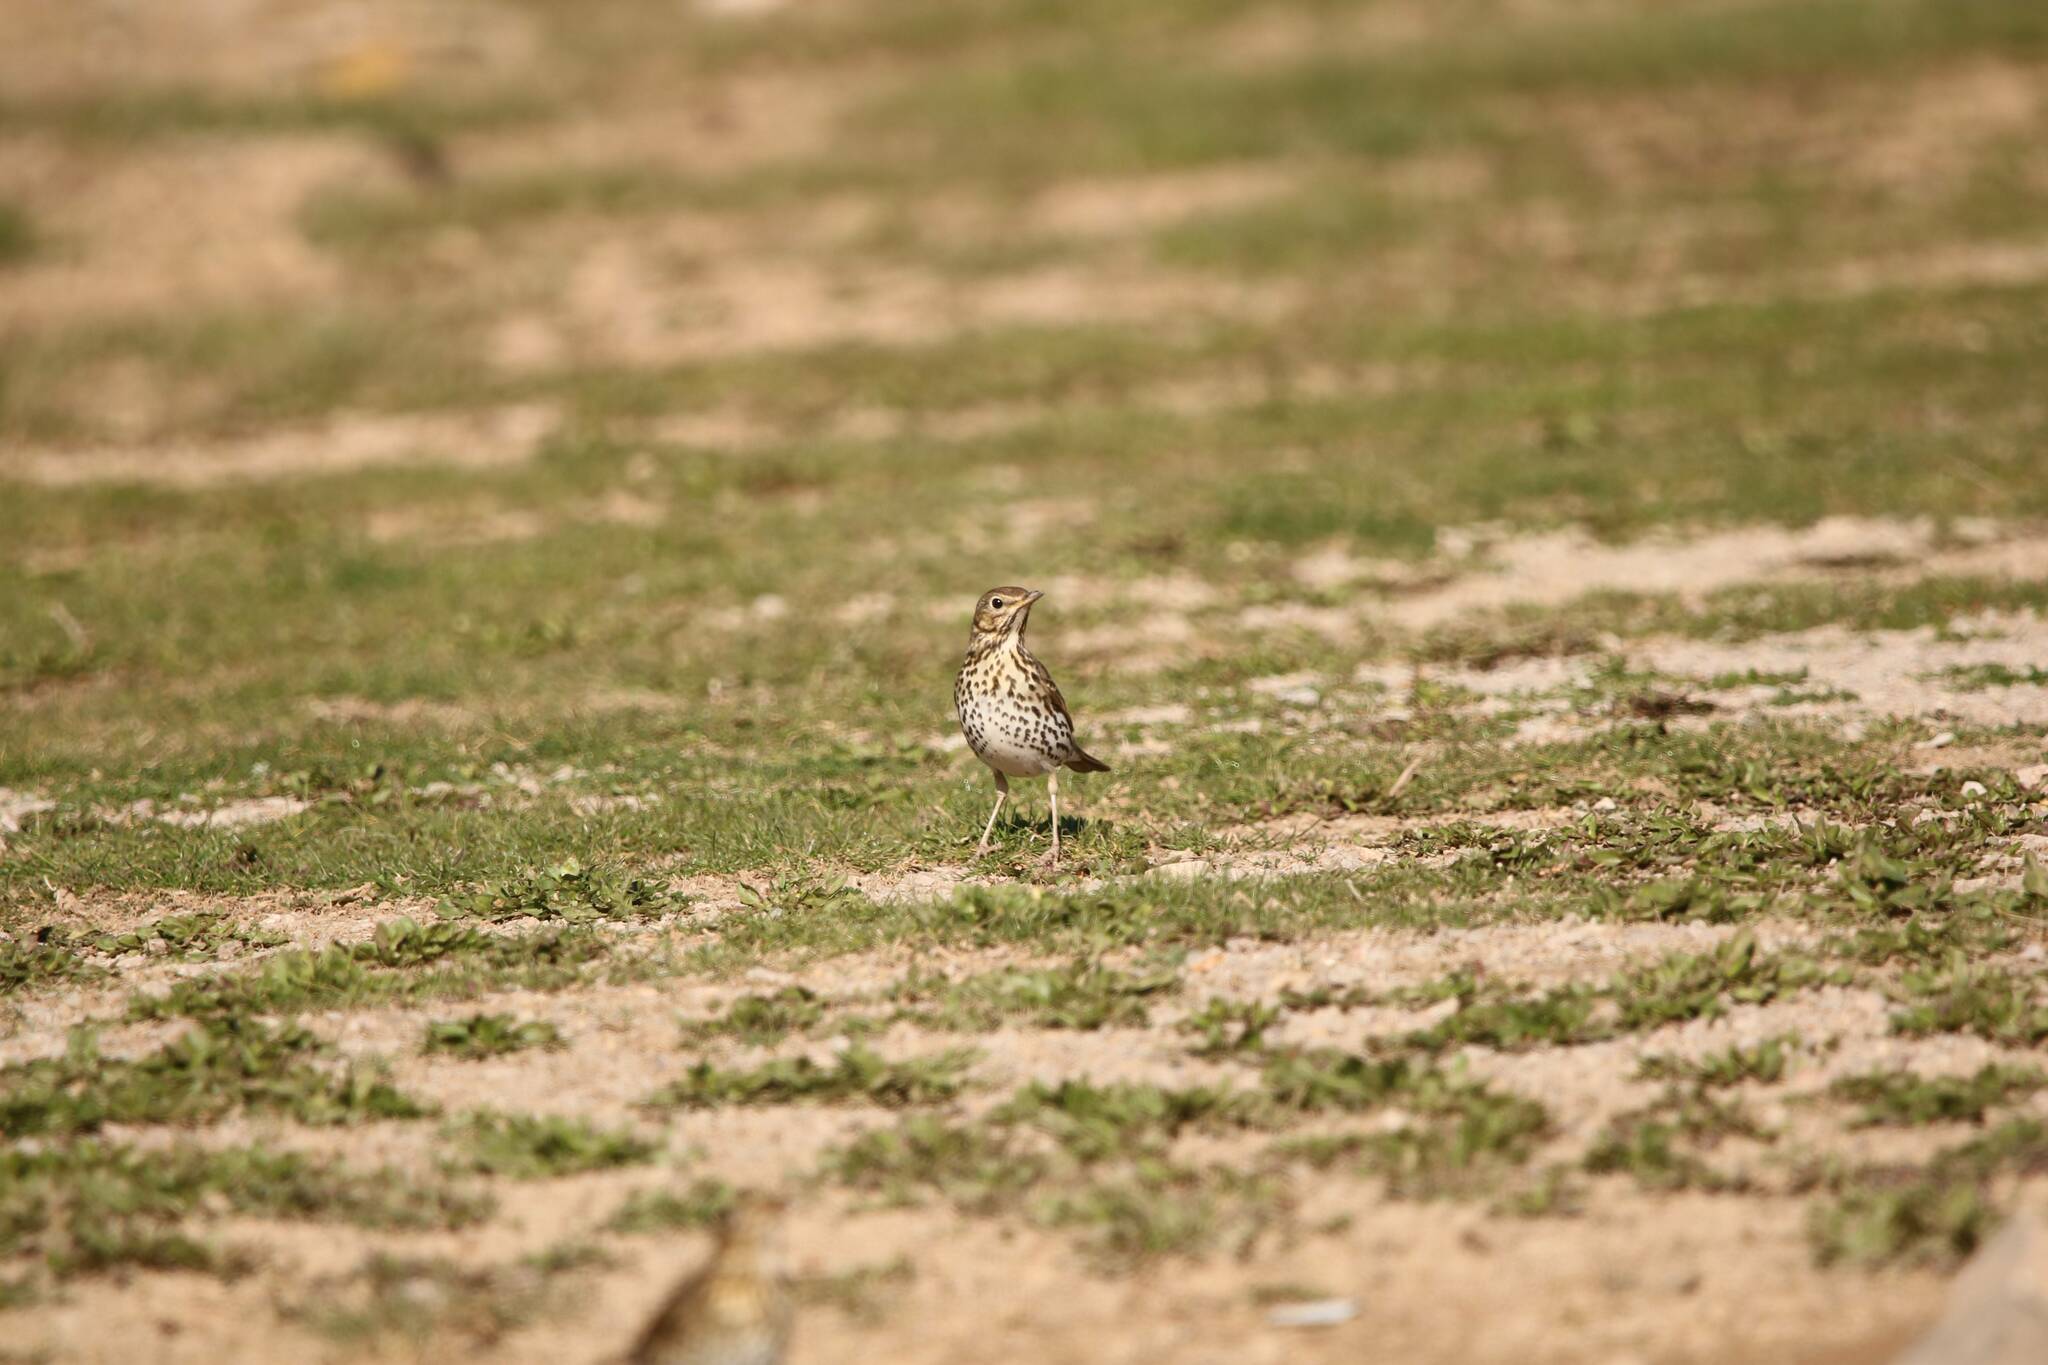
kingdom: Animalia
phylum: Chordata
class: Aves
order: Passeriformes
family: Turdidae
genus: Turdus
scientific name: Turdus philomelos
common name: Song thrush
